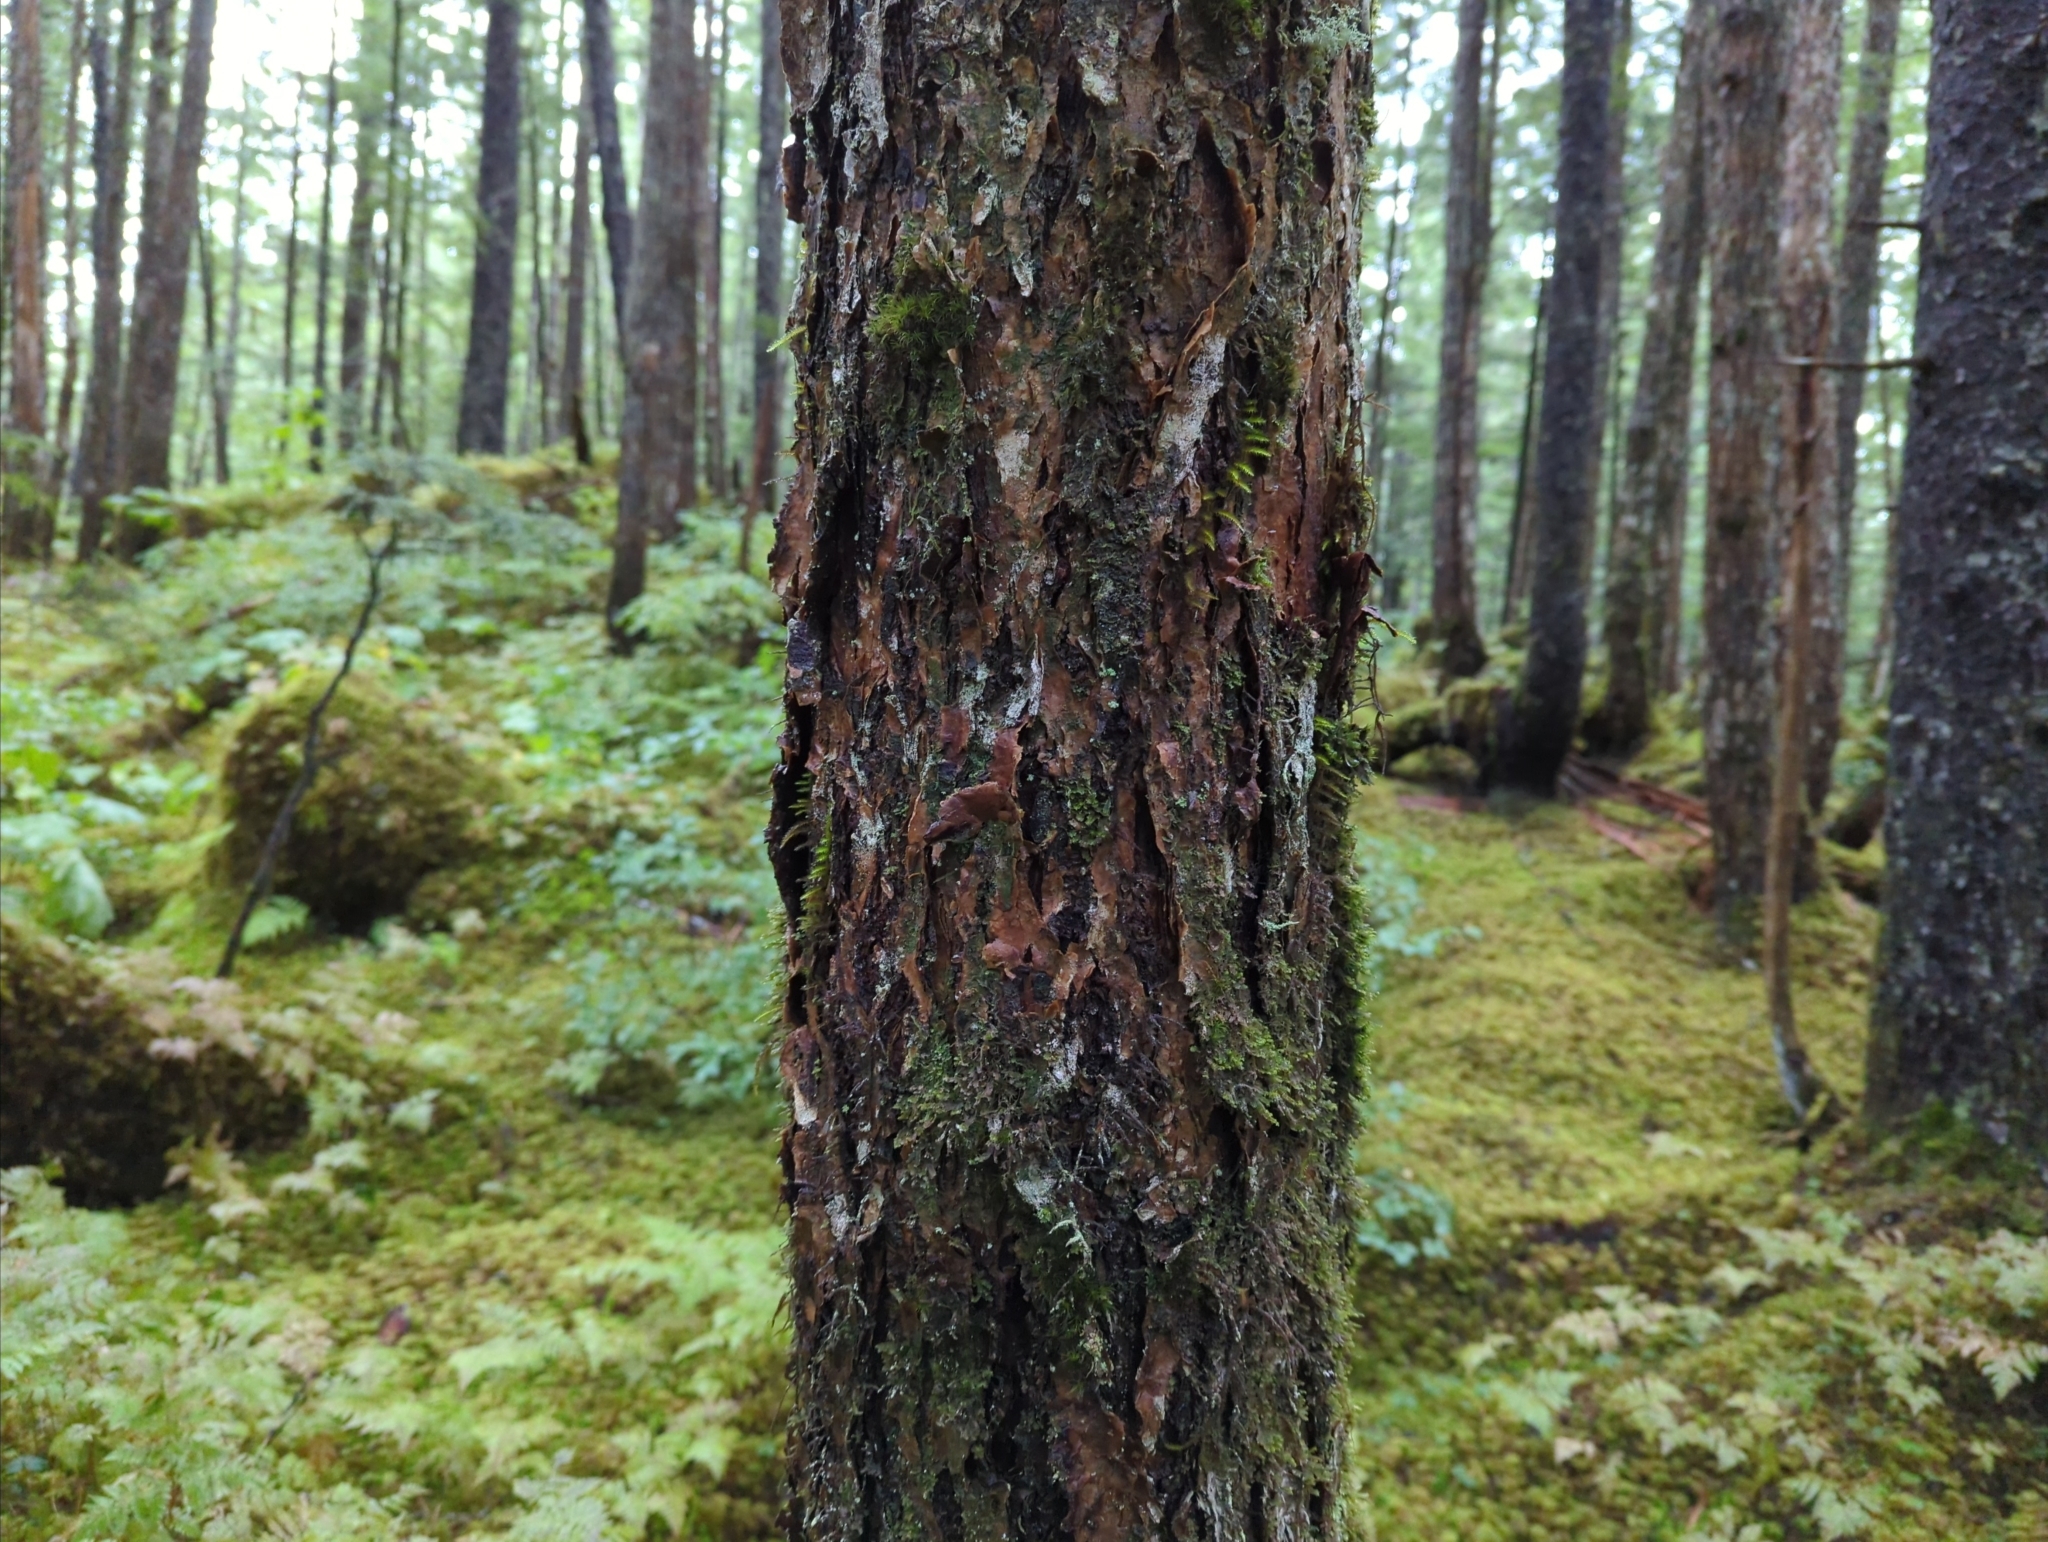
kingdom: Plantae
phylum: Tracheophyta
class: Pinopsida
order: Pinales
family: Pinaceae
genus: Tsuga
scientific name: Tsuga heterophylla
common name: Western hemlock
